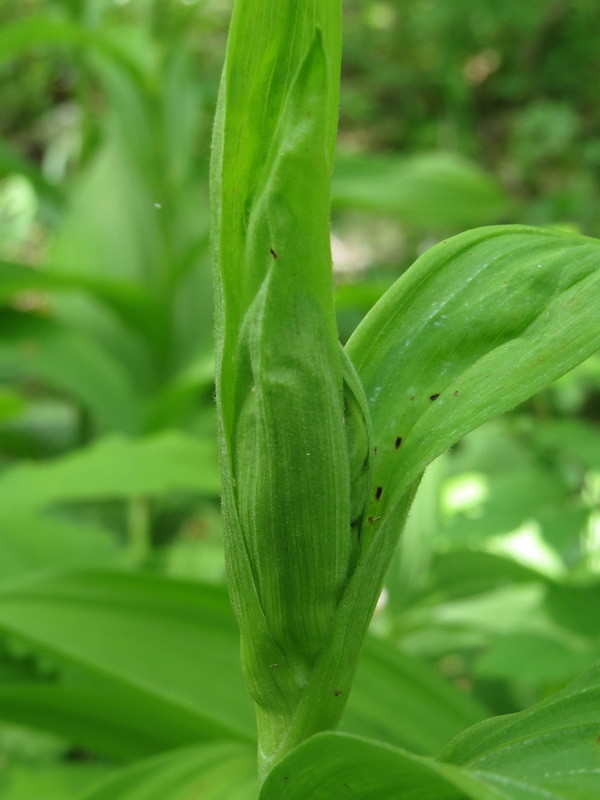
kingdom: Plantae
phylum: Tracheophyta
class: Liliopsida
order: Liliales
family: Melanthiaceae
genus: Veratrum
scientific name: Veratrum viride
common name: American false hellebore
